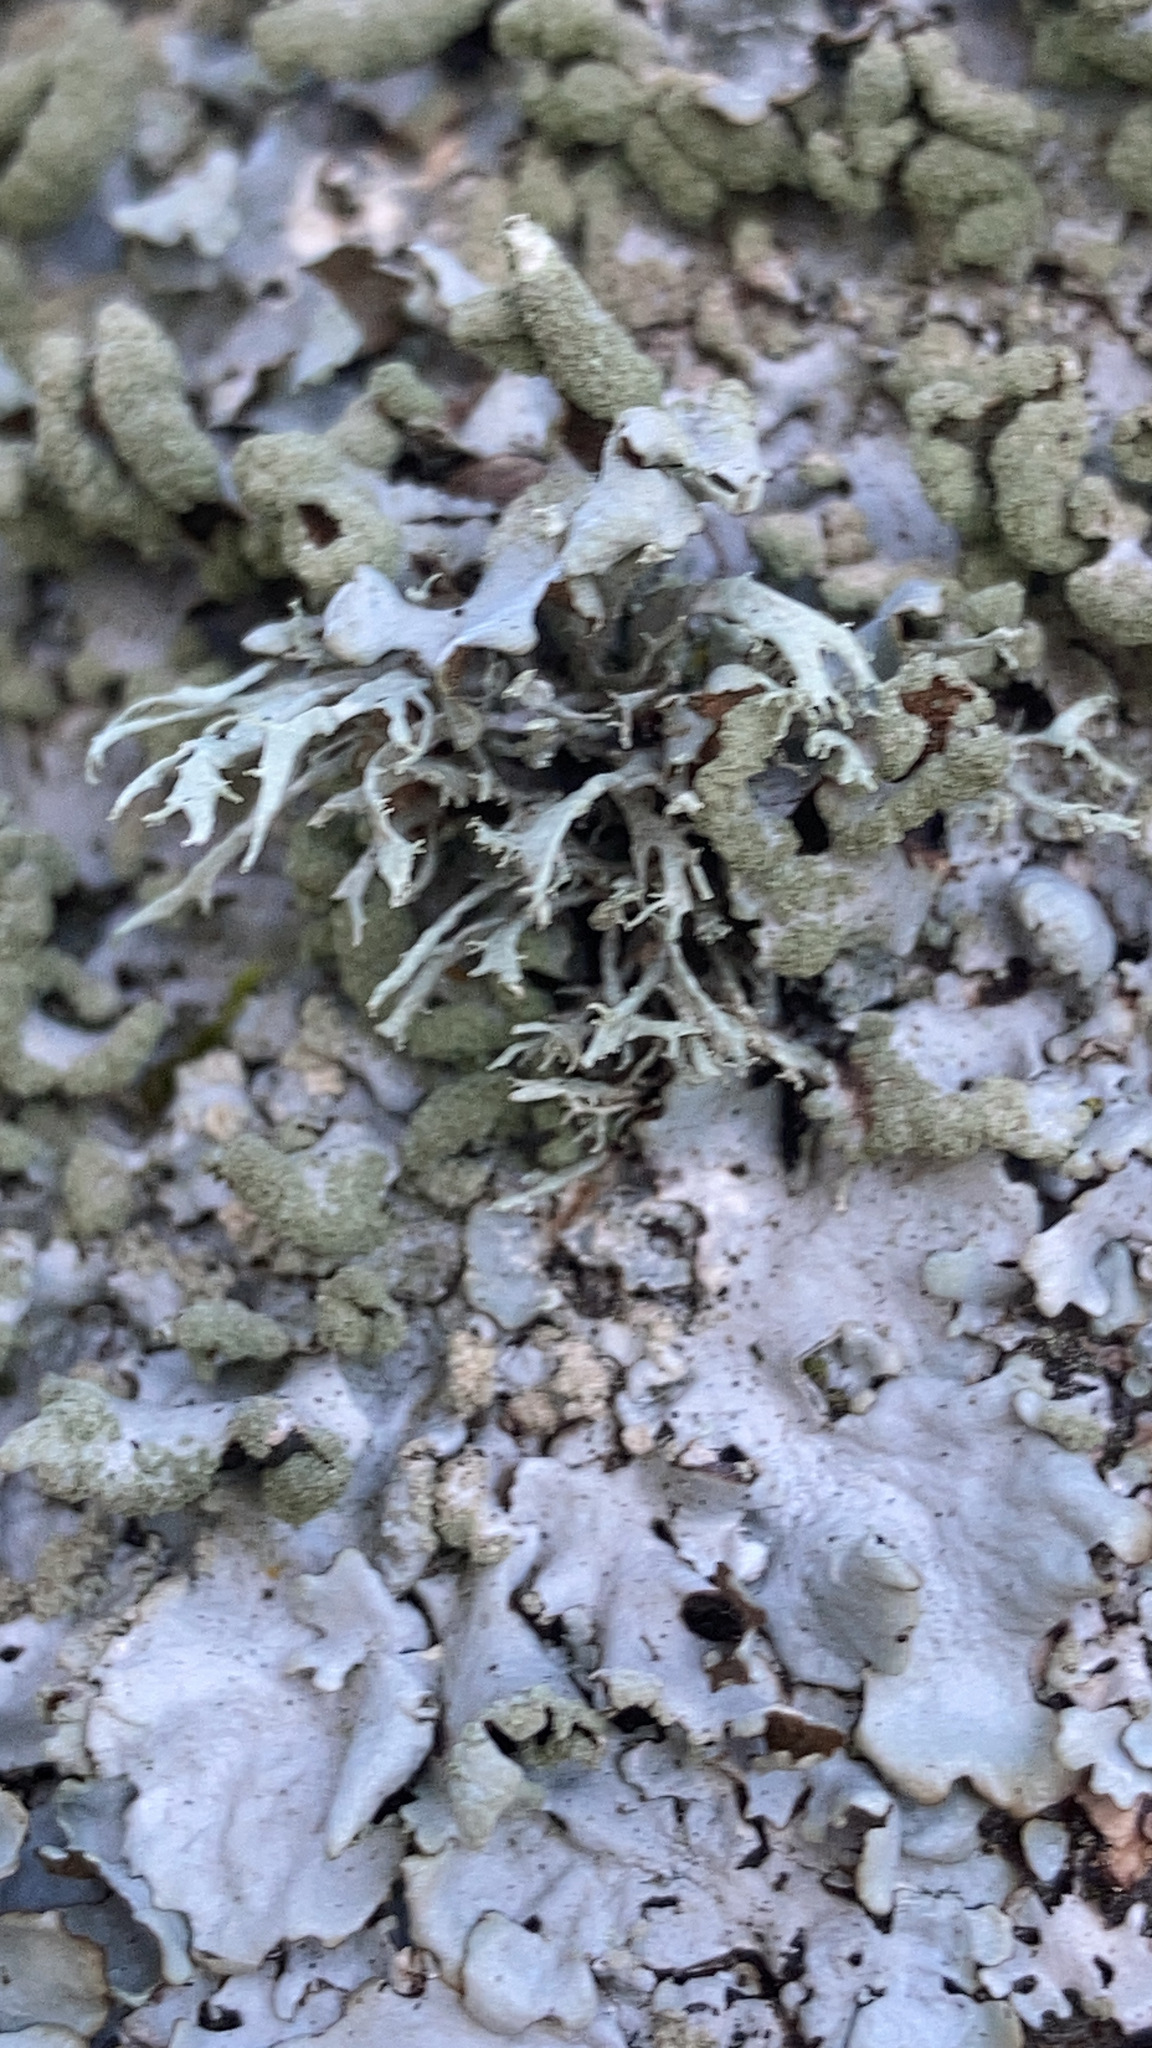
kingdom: Fungi
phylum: Ascomycota
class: Lecanoromycetes
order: Lecanorales
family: Parmeliaceae
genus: Hypotrachyna
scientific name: Hypotrachyna revoluta
